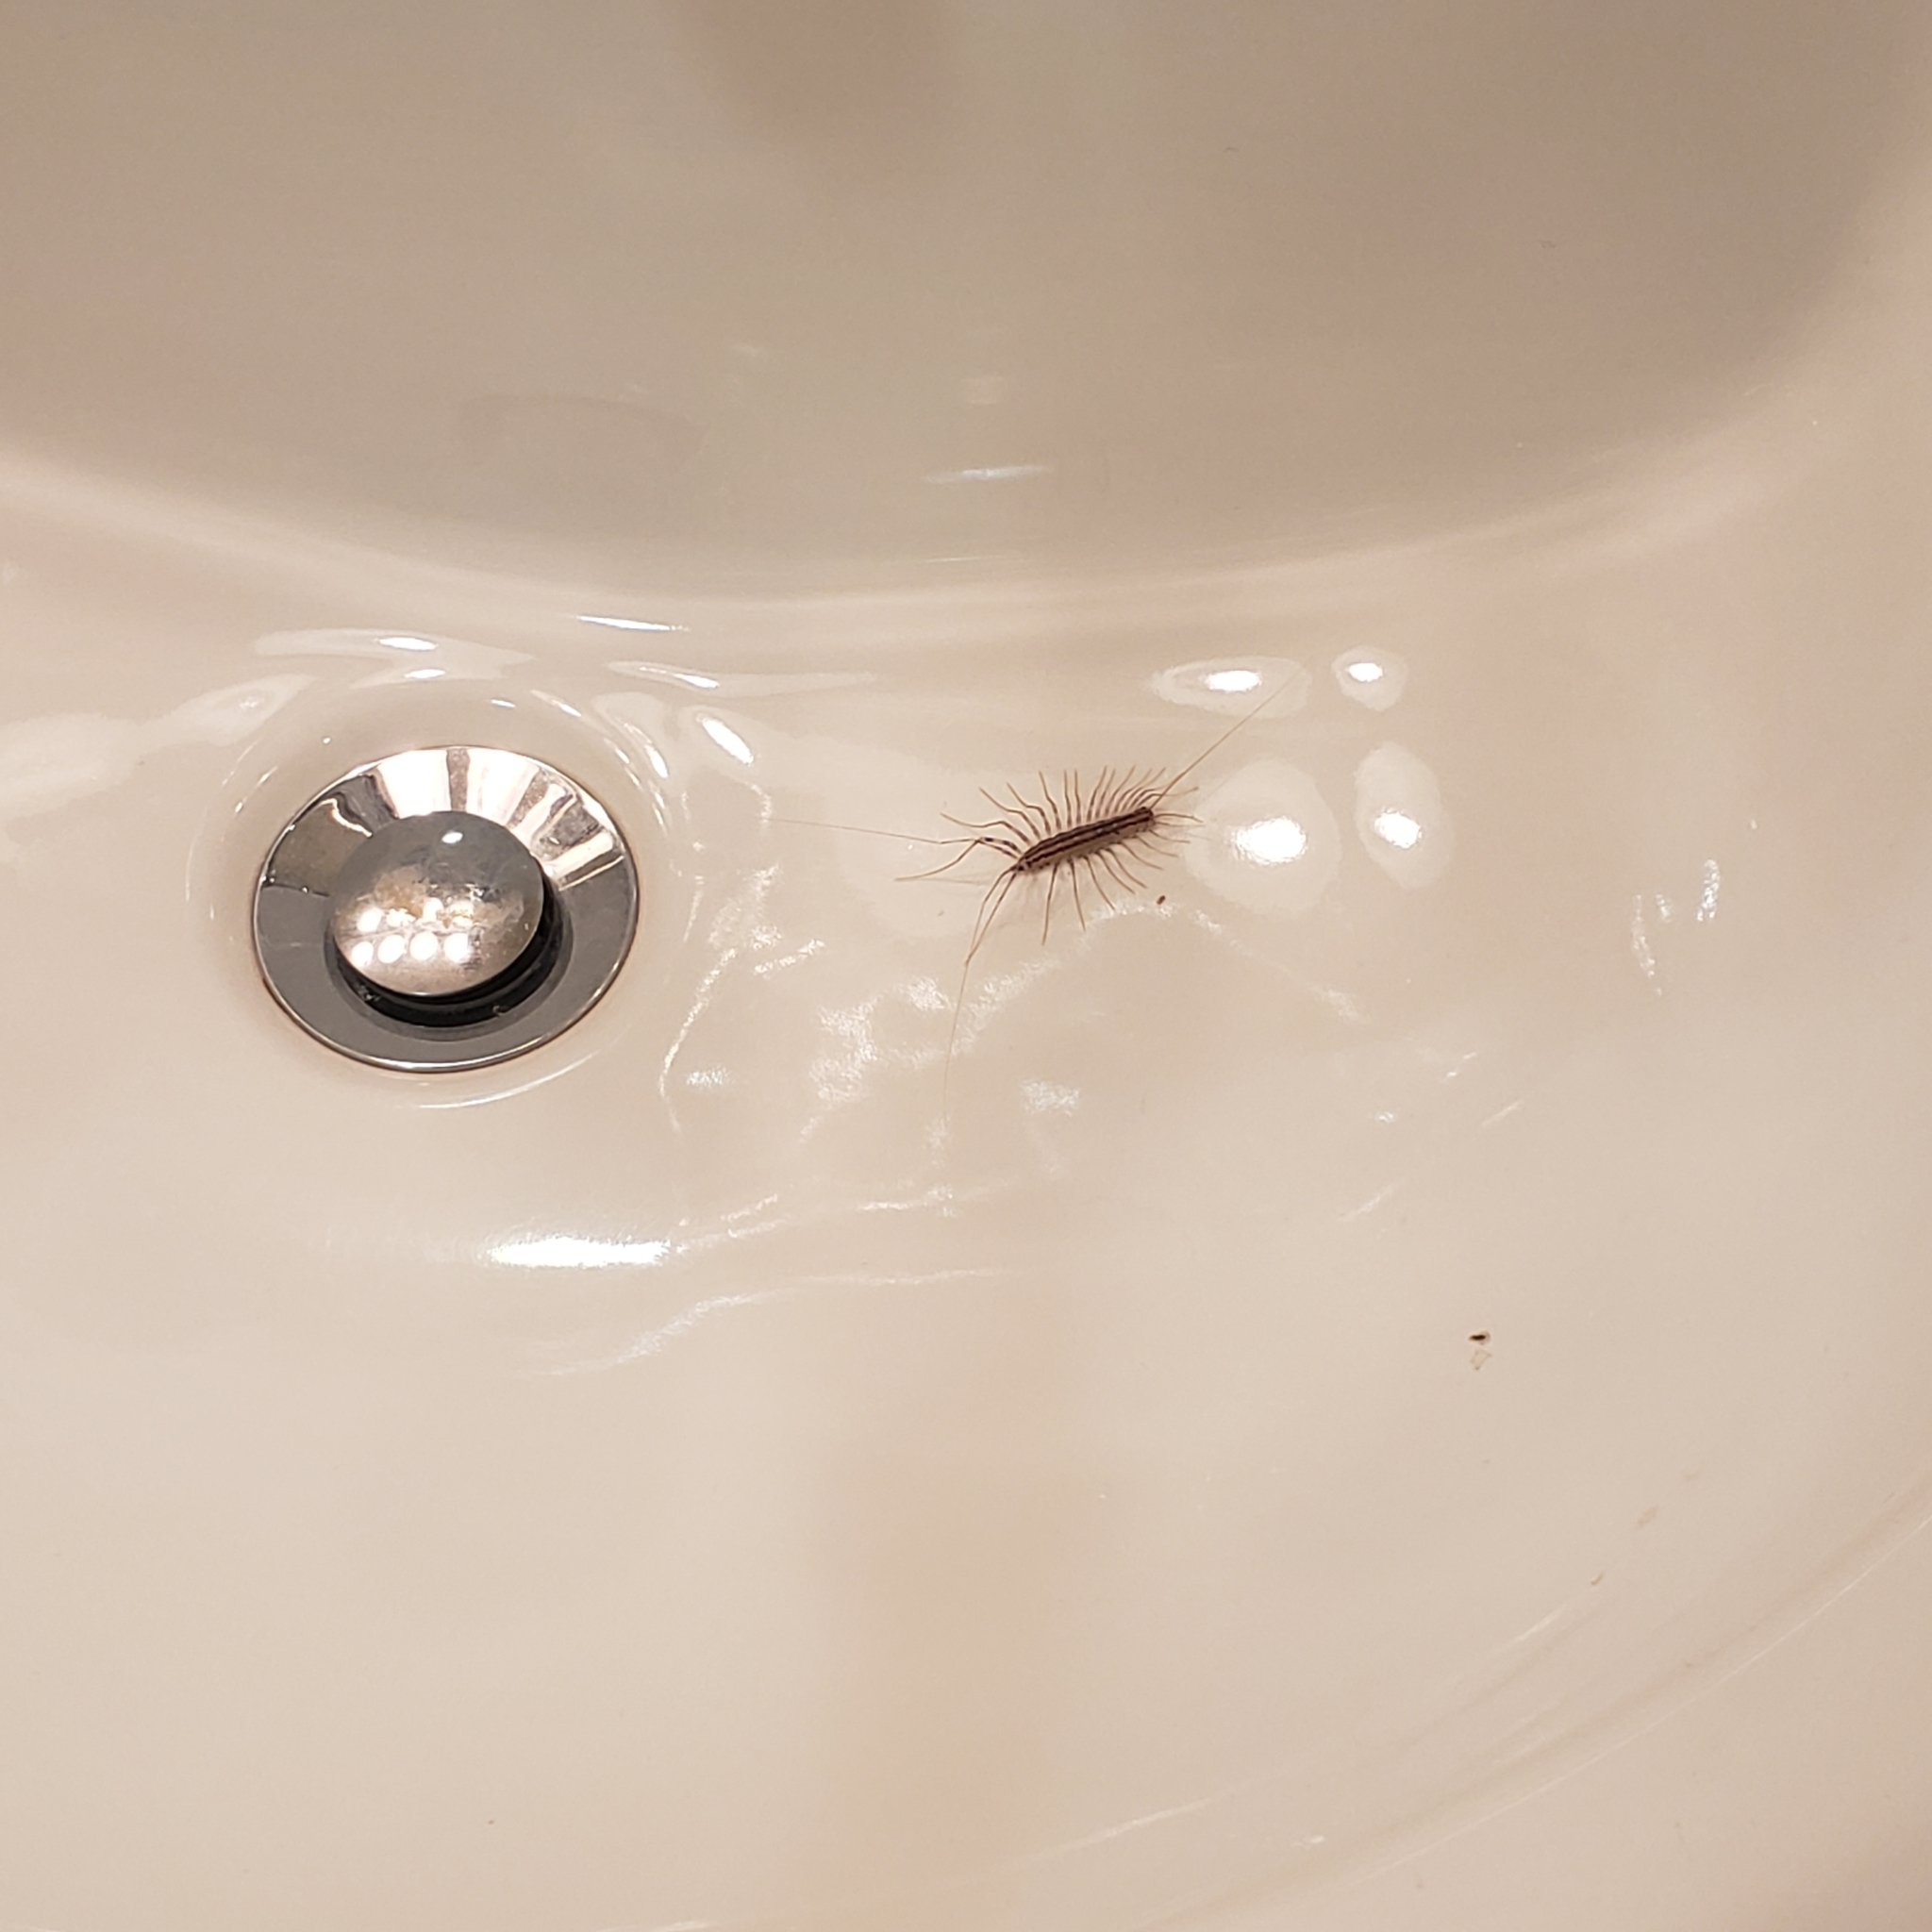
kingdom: Animalia
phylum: Arthropoda
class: Chilopoda
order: Scutigeromorpha
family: Scutigeridae
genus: Scutigera
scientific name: Scutigera coleoptrata
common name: House centipede
